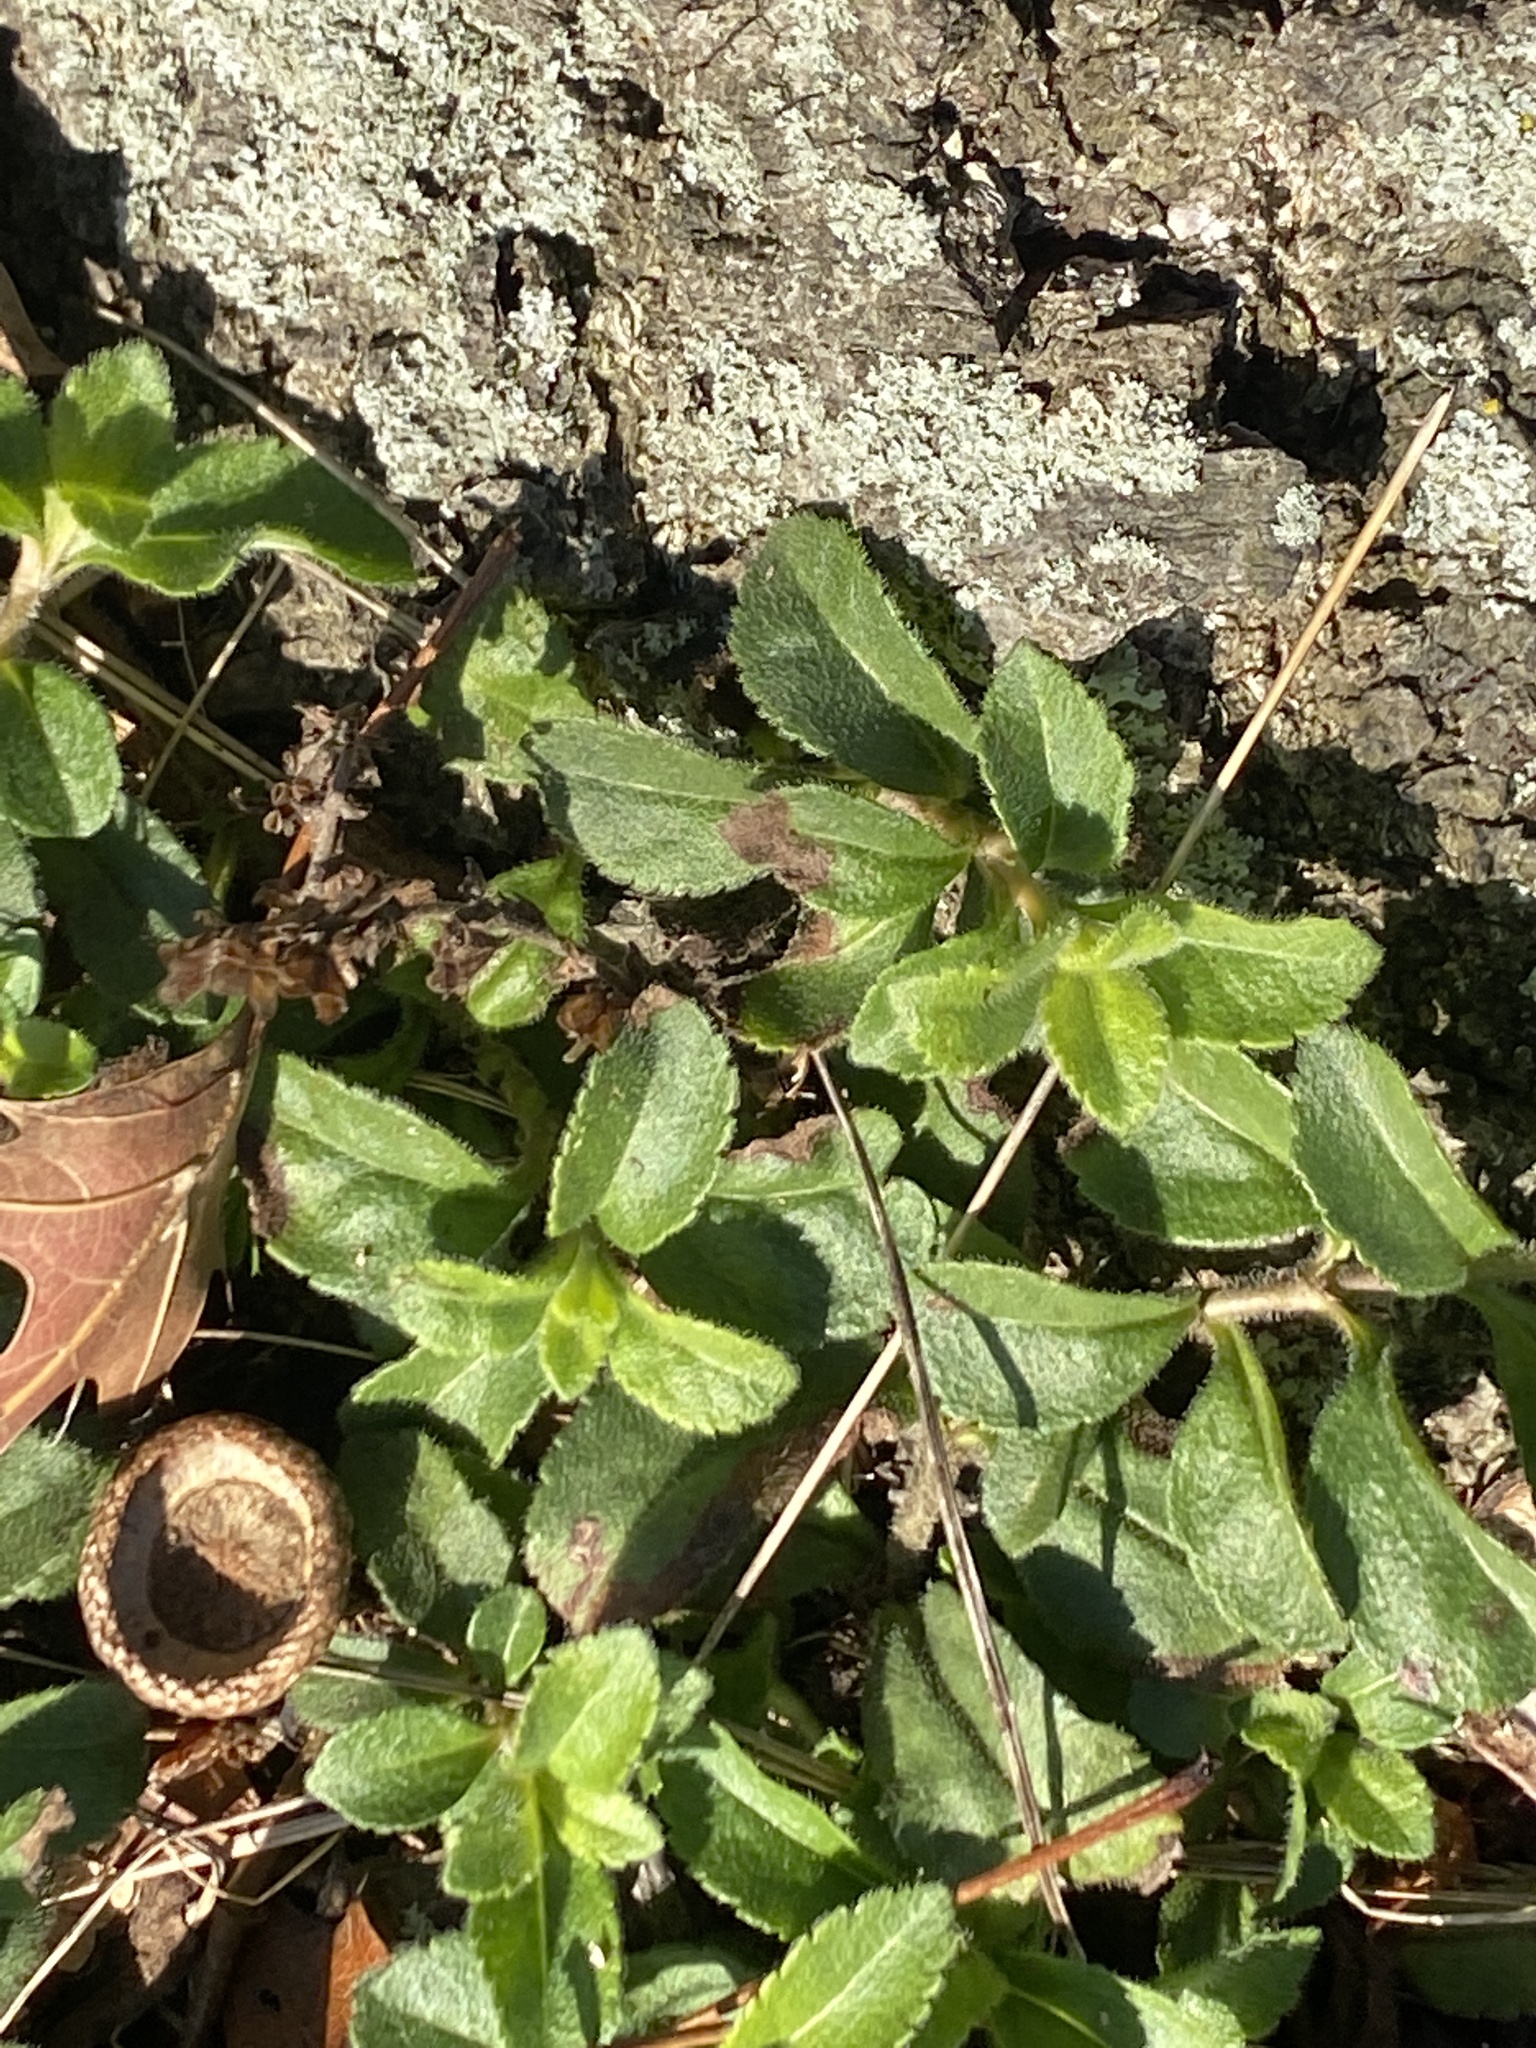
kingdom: Plantae
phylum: Tracheophyta
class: Magnoliopsida
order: Lamiales
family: Plantaginaceae
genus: Veronica
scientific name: Veronica officinalis
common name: Common speedwell
